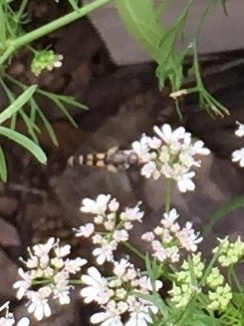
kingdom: Animalia
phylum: Arthropoda
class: Insecta
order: Diptera
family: Syrphidae
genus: Syritta
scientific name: Syritta pipiens
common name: Hover fly
